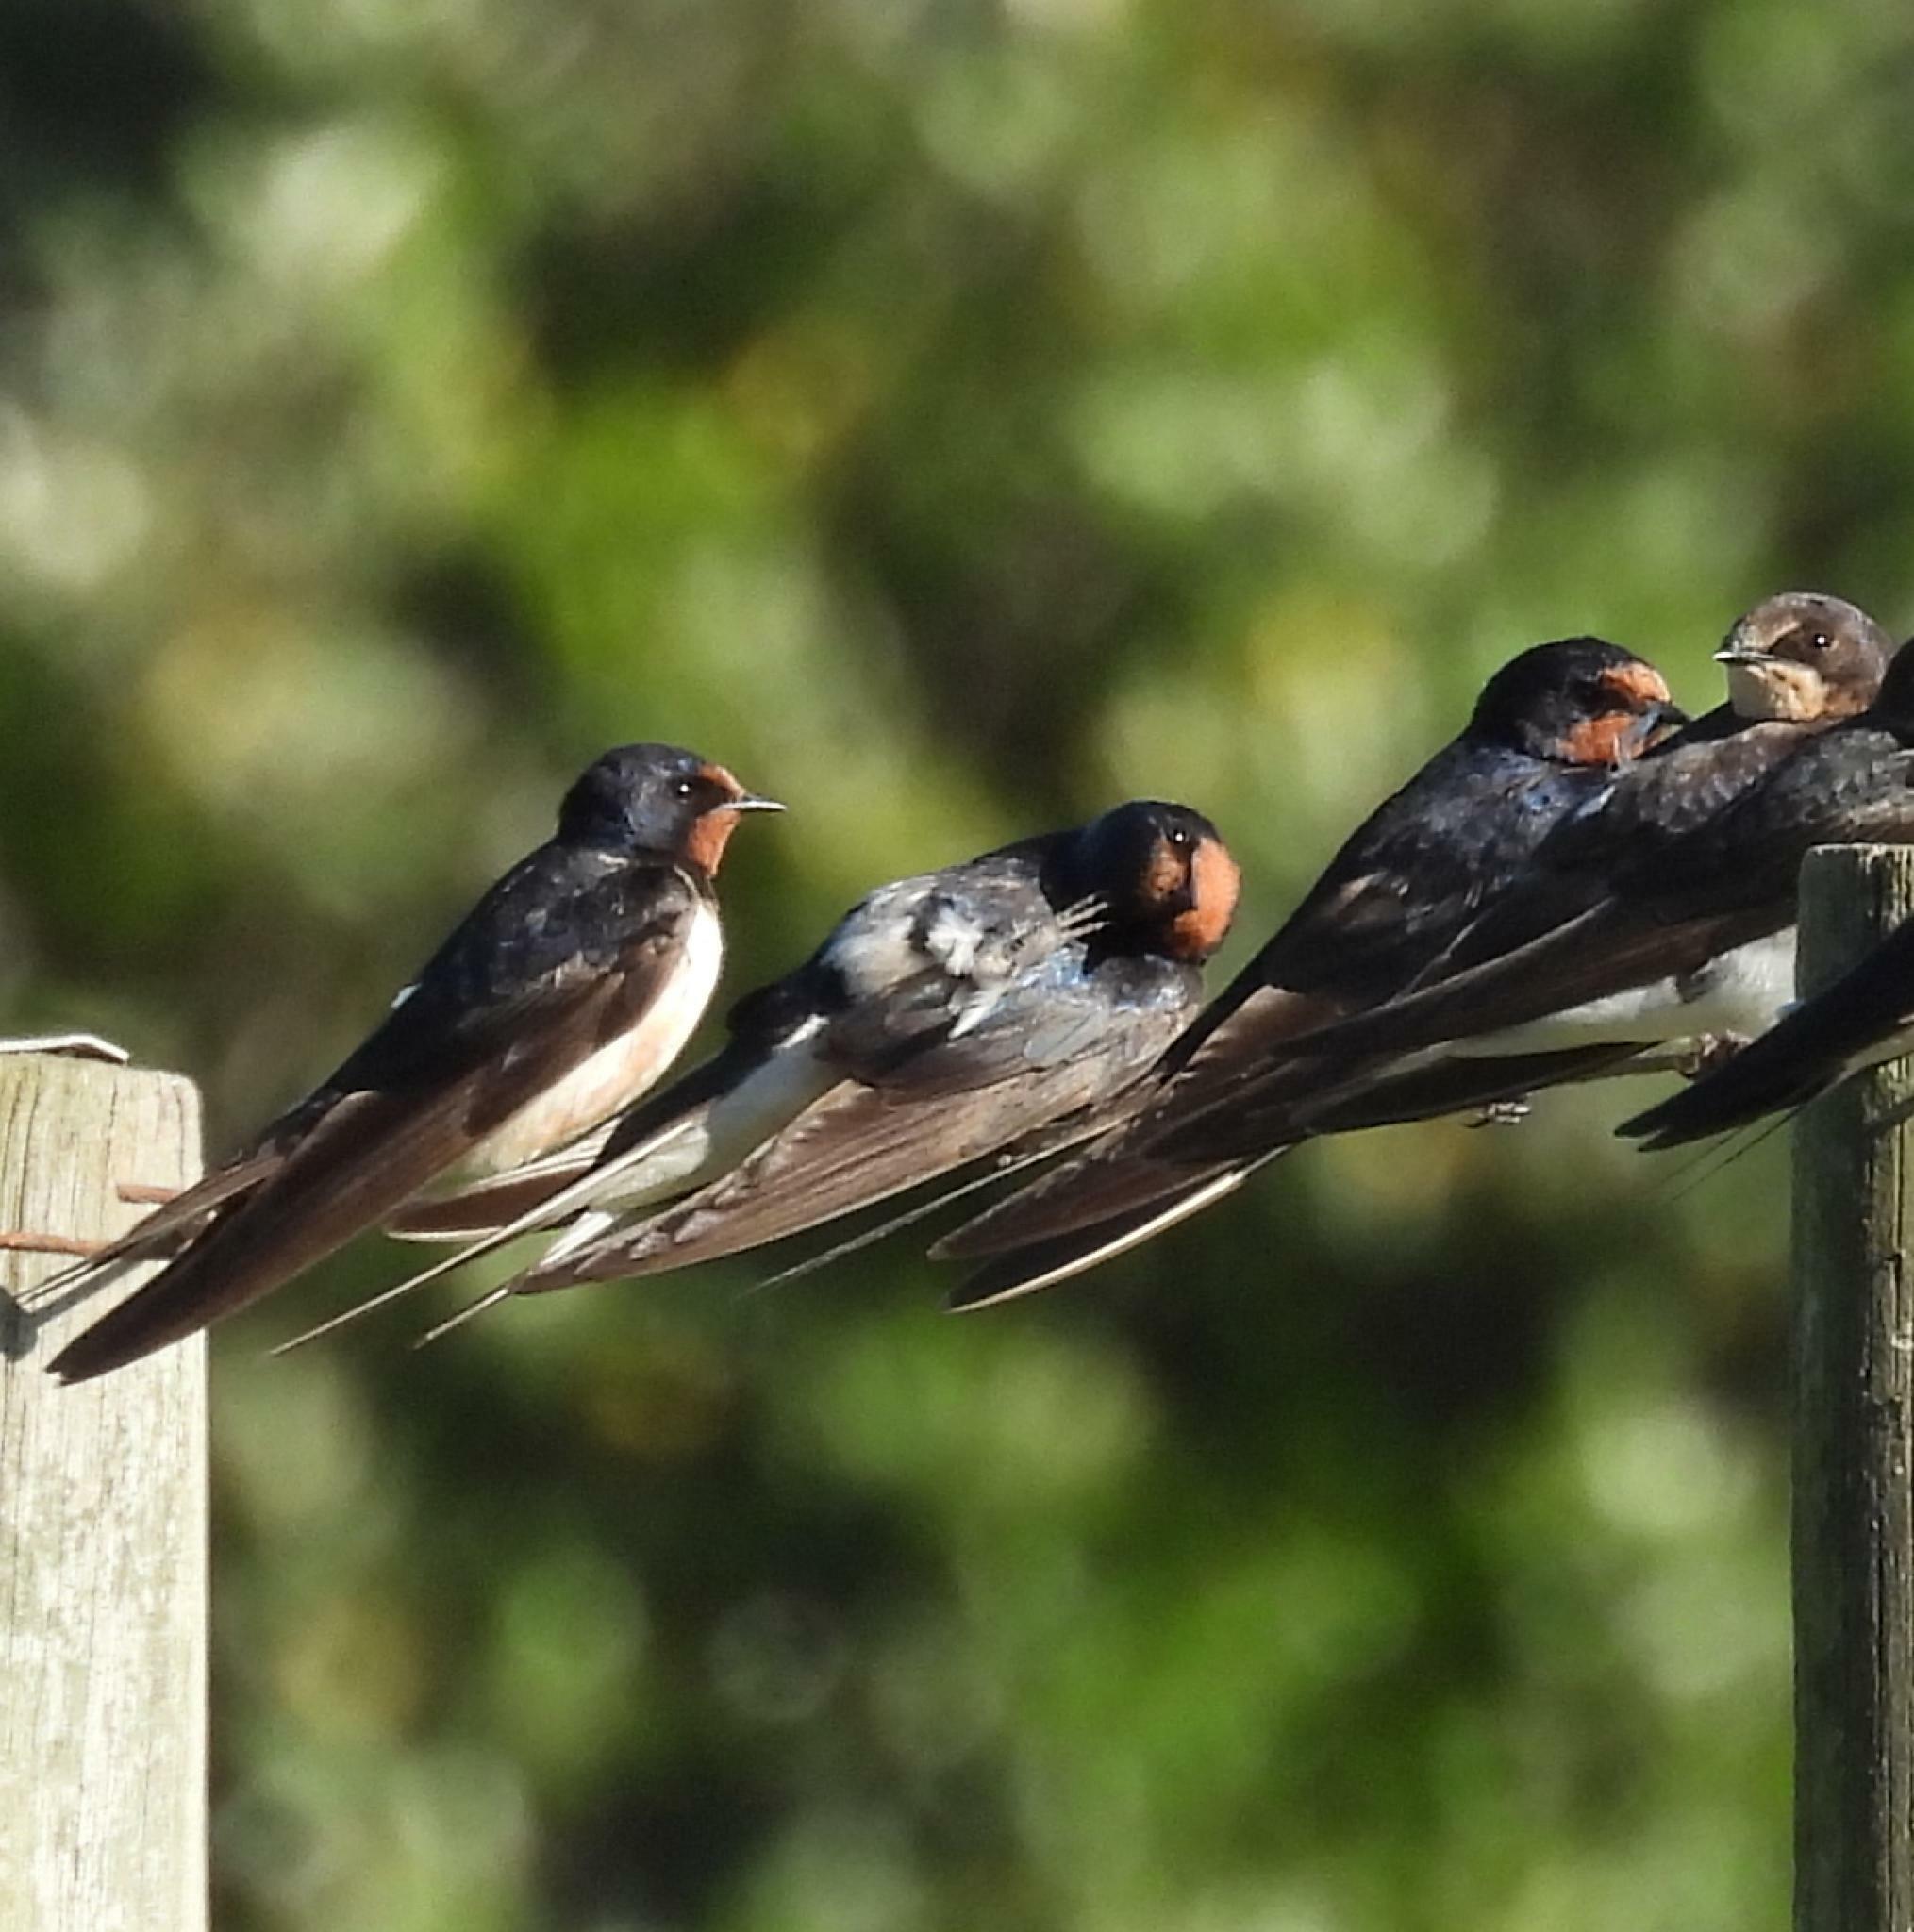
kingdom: Animalia
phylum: Chordata
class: Aves
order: Passeriformes
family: Hirundinidae
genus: Hirundo
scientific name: Hirundo rustica
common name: Barn swallow
